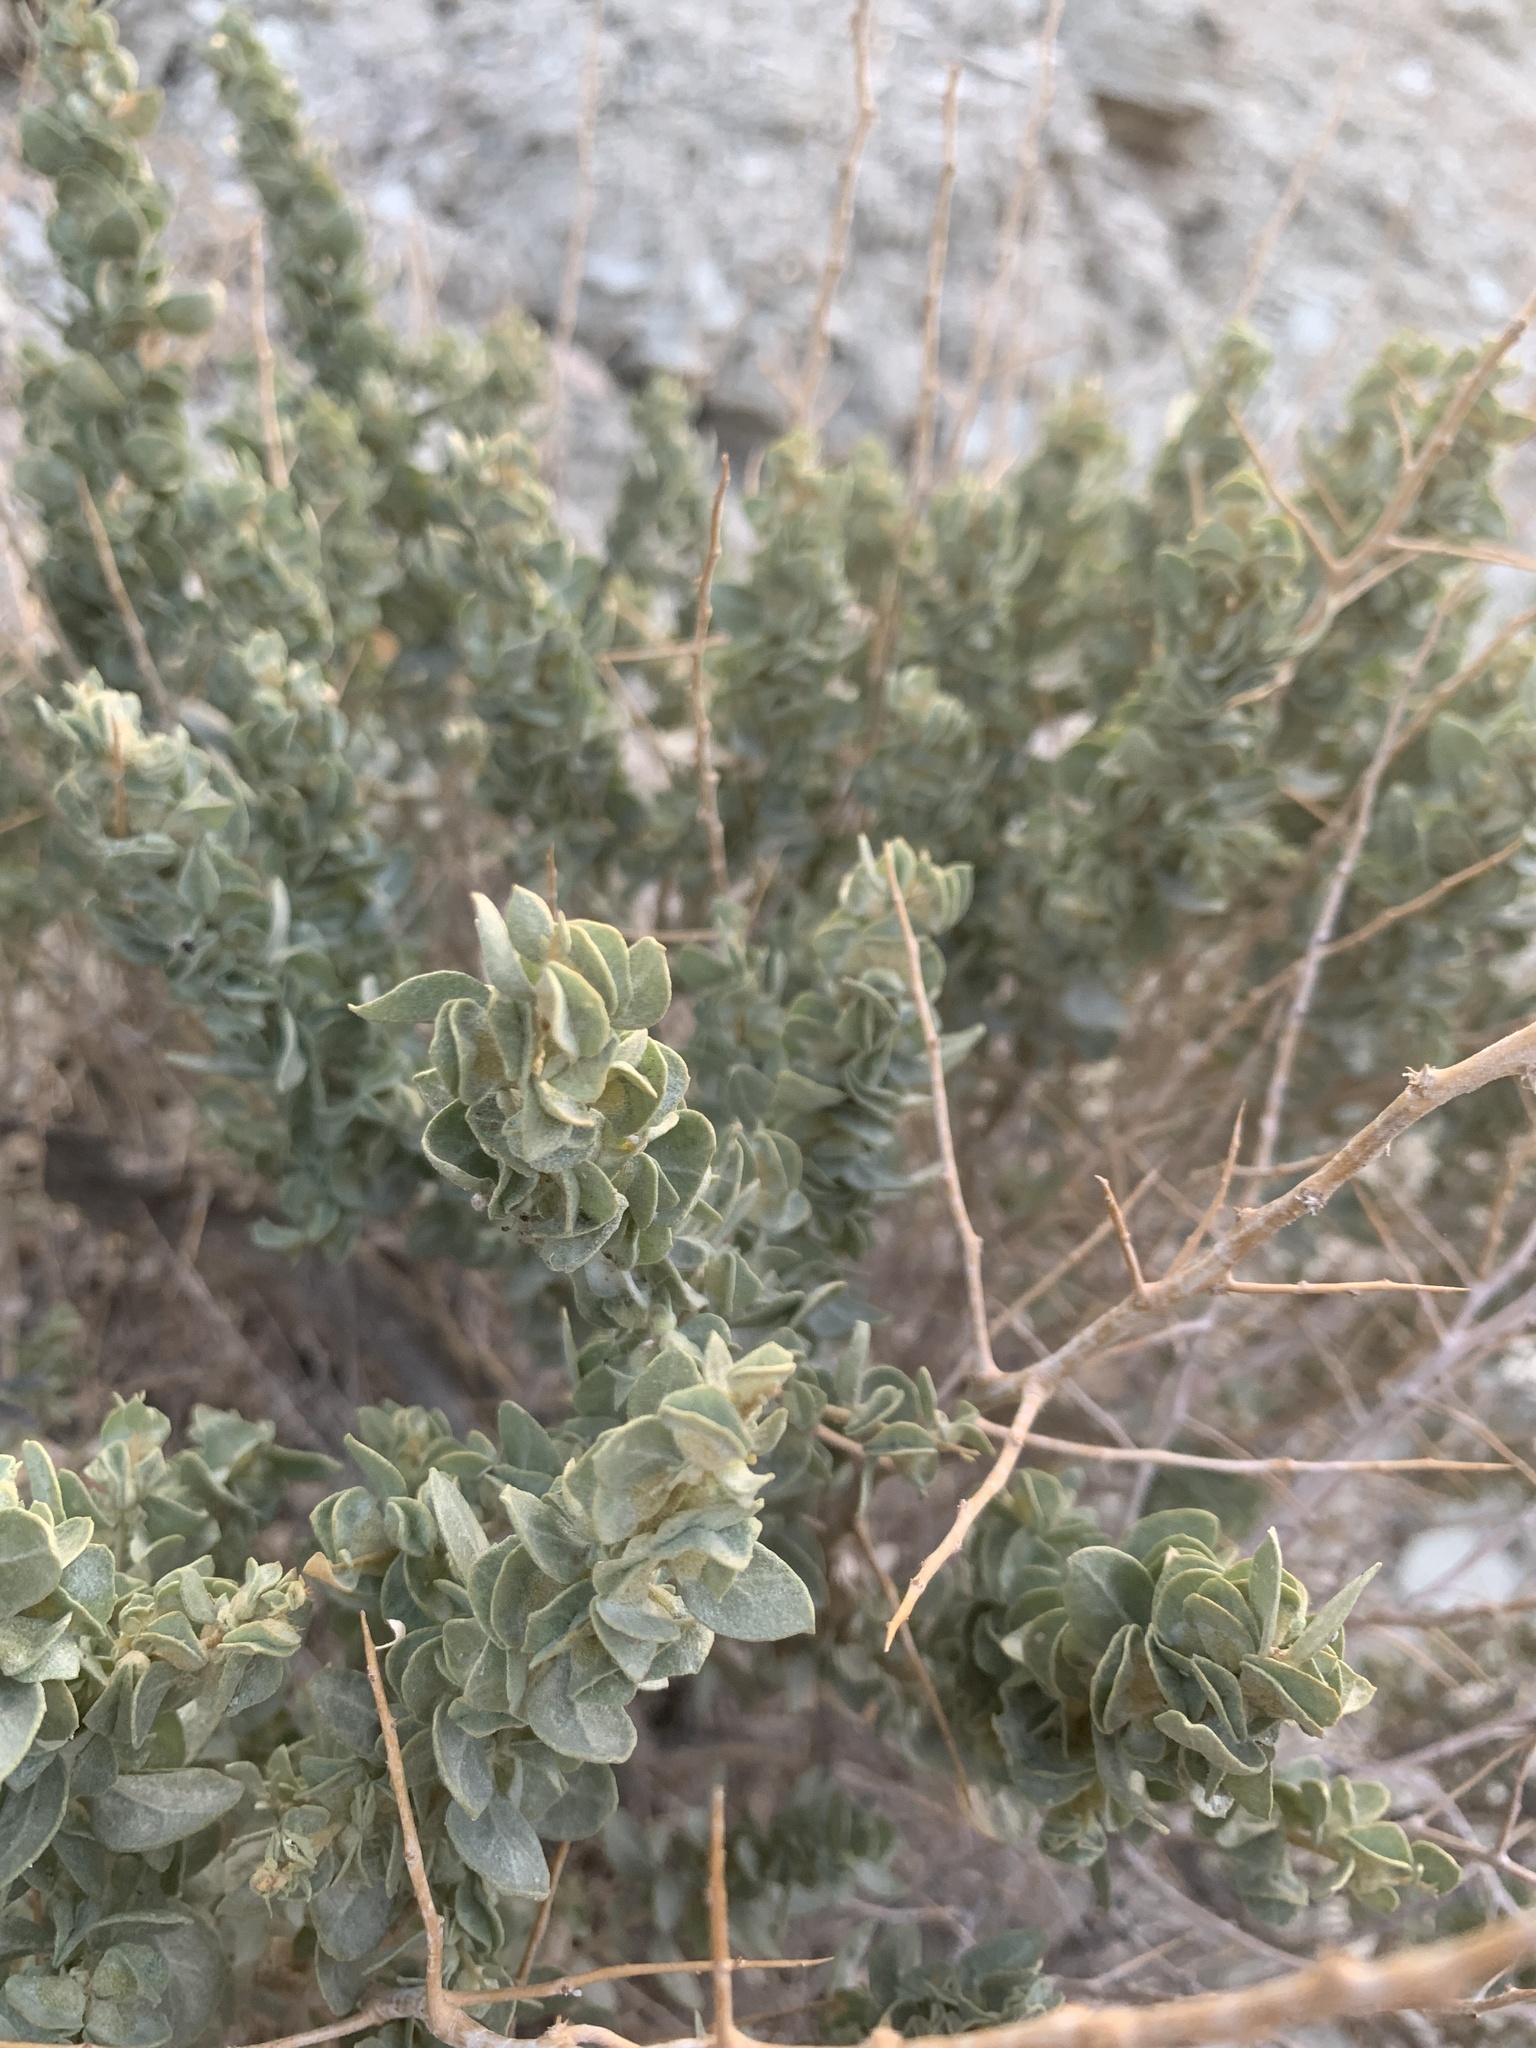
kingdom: Plantae
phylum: Tracheophyta
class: Magnoliopsida
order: Caryophyllales
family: Amaranthaceae
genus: Atriplex
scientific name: Atriplex confertifolia
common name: Shadscale
